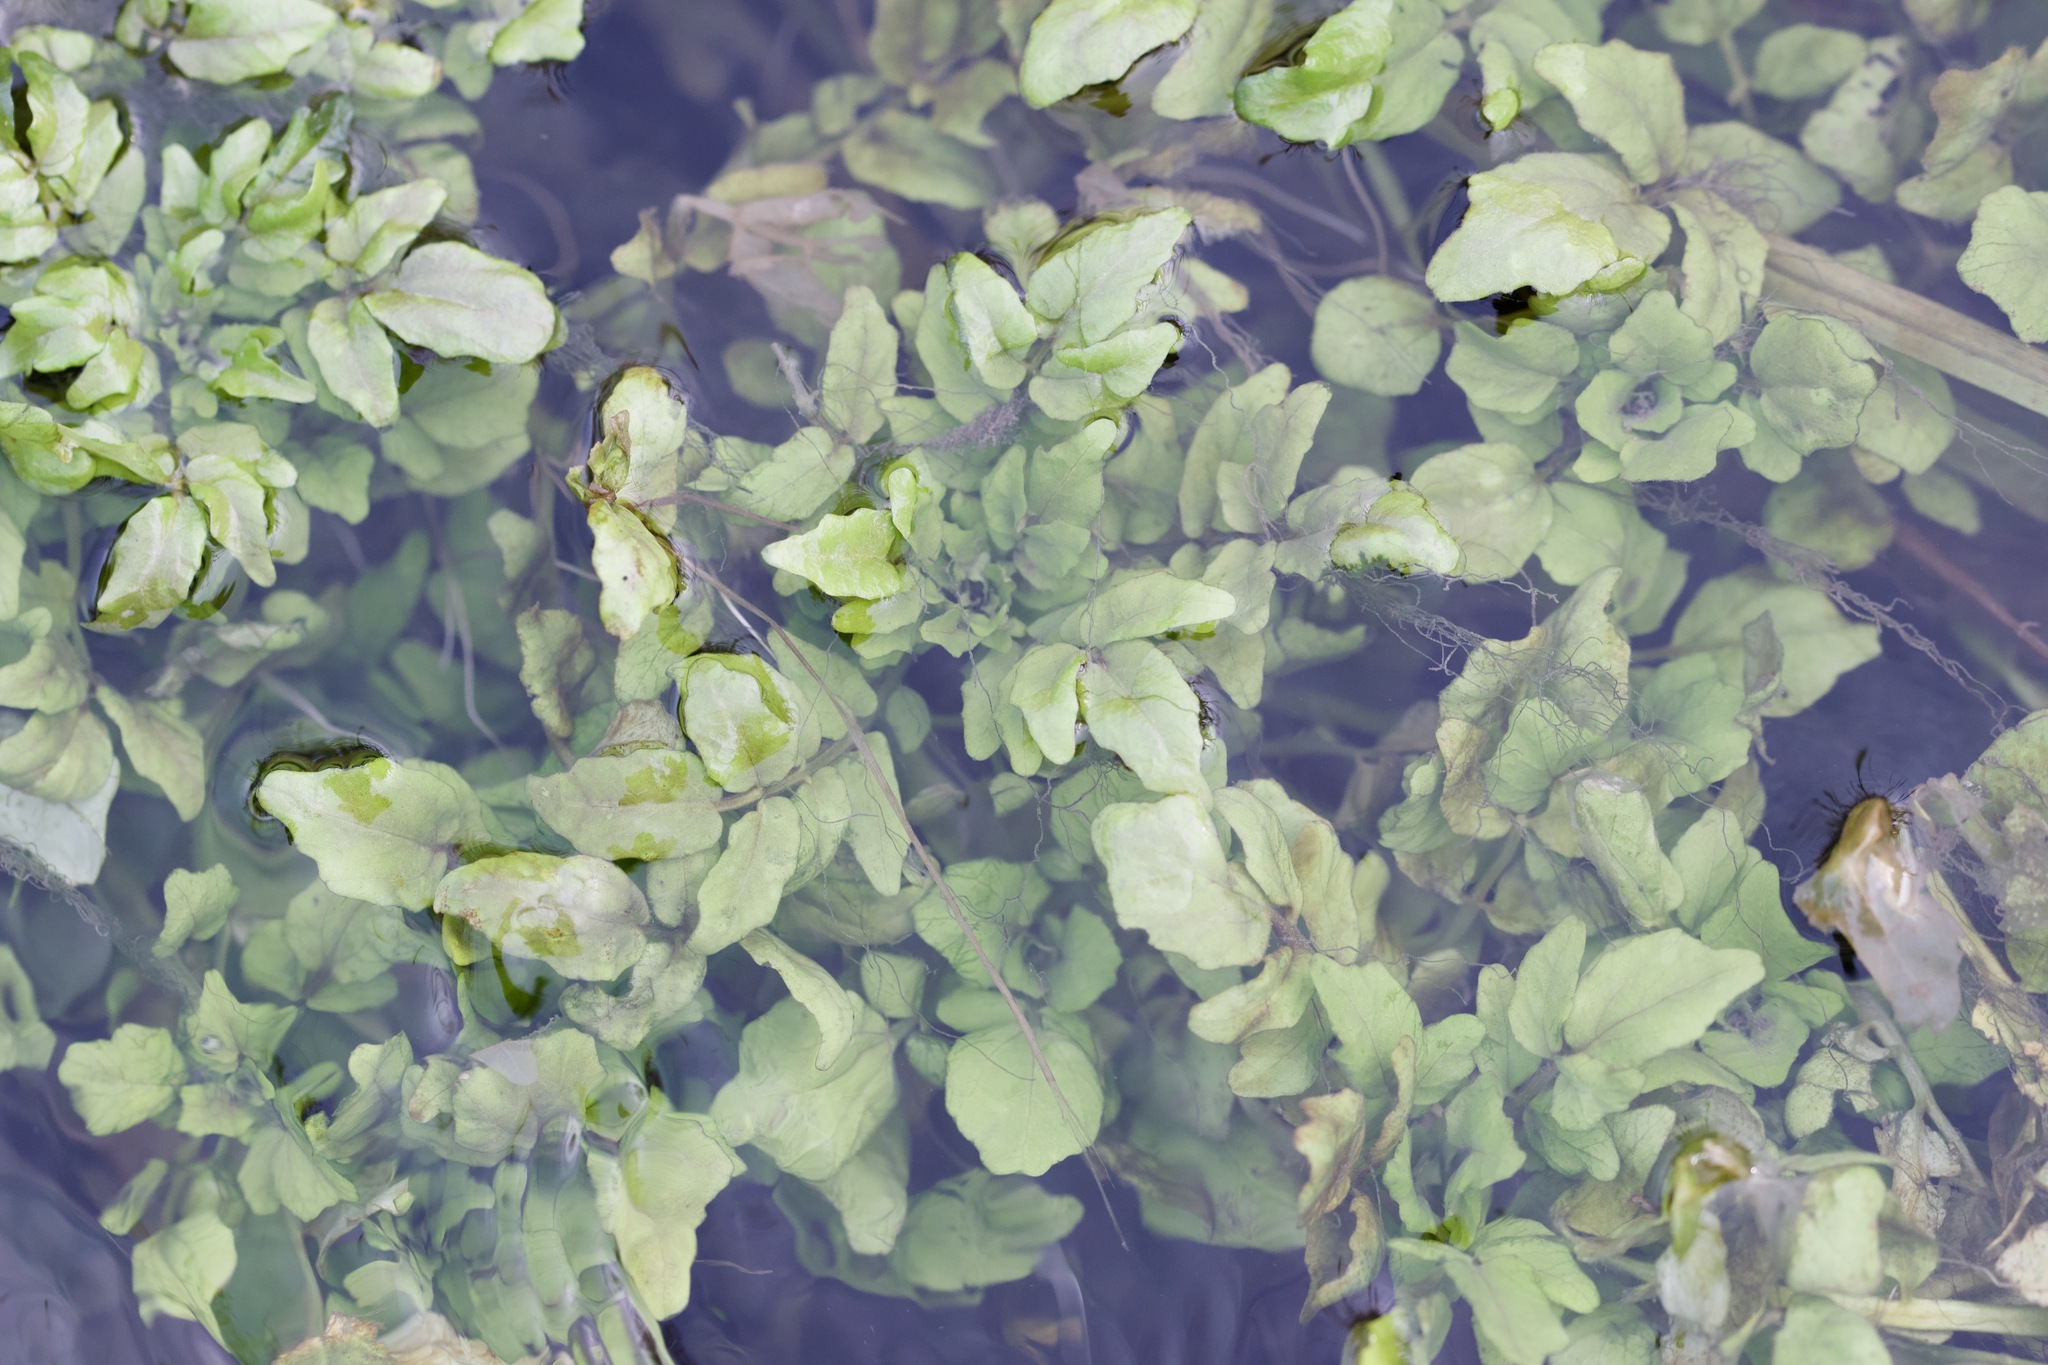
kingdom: Plantae
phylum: Tracheophyta
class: Magnoliopsida
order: Brassicales
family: Brassicaceae
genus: Nasturtium
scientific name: Nasturtium officinale
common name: Watercress
